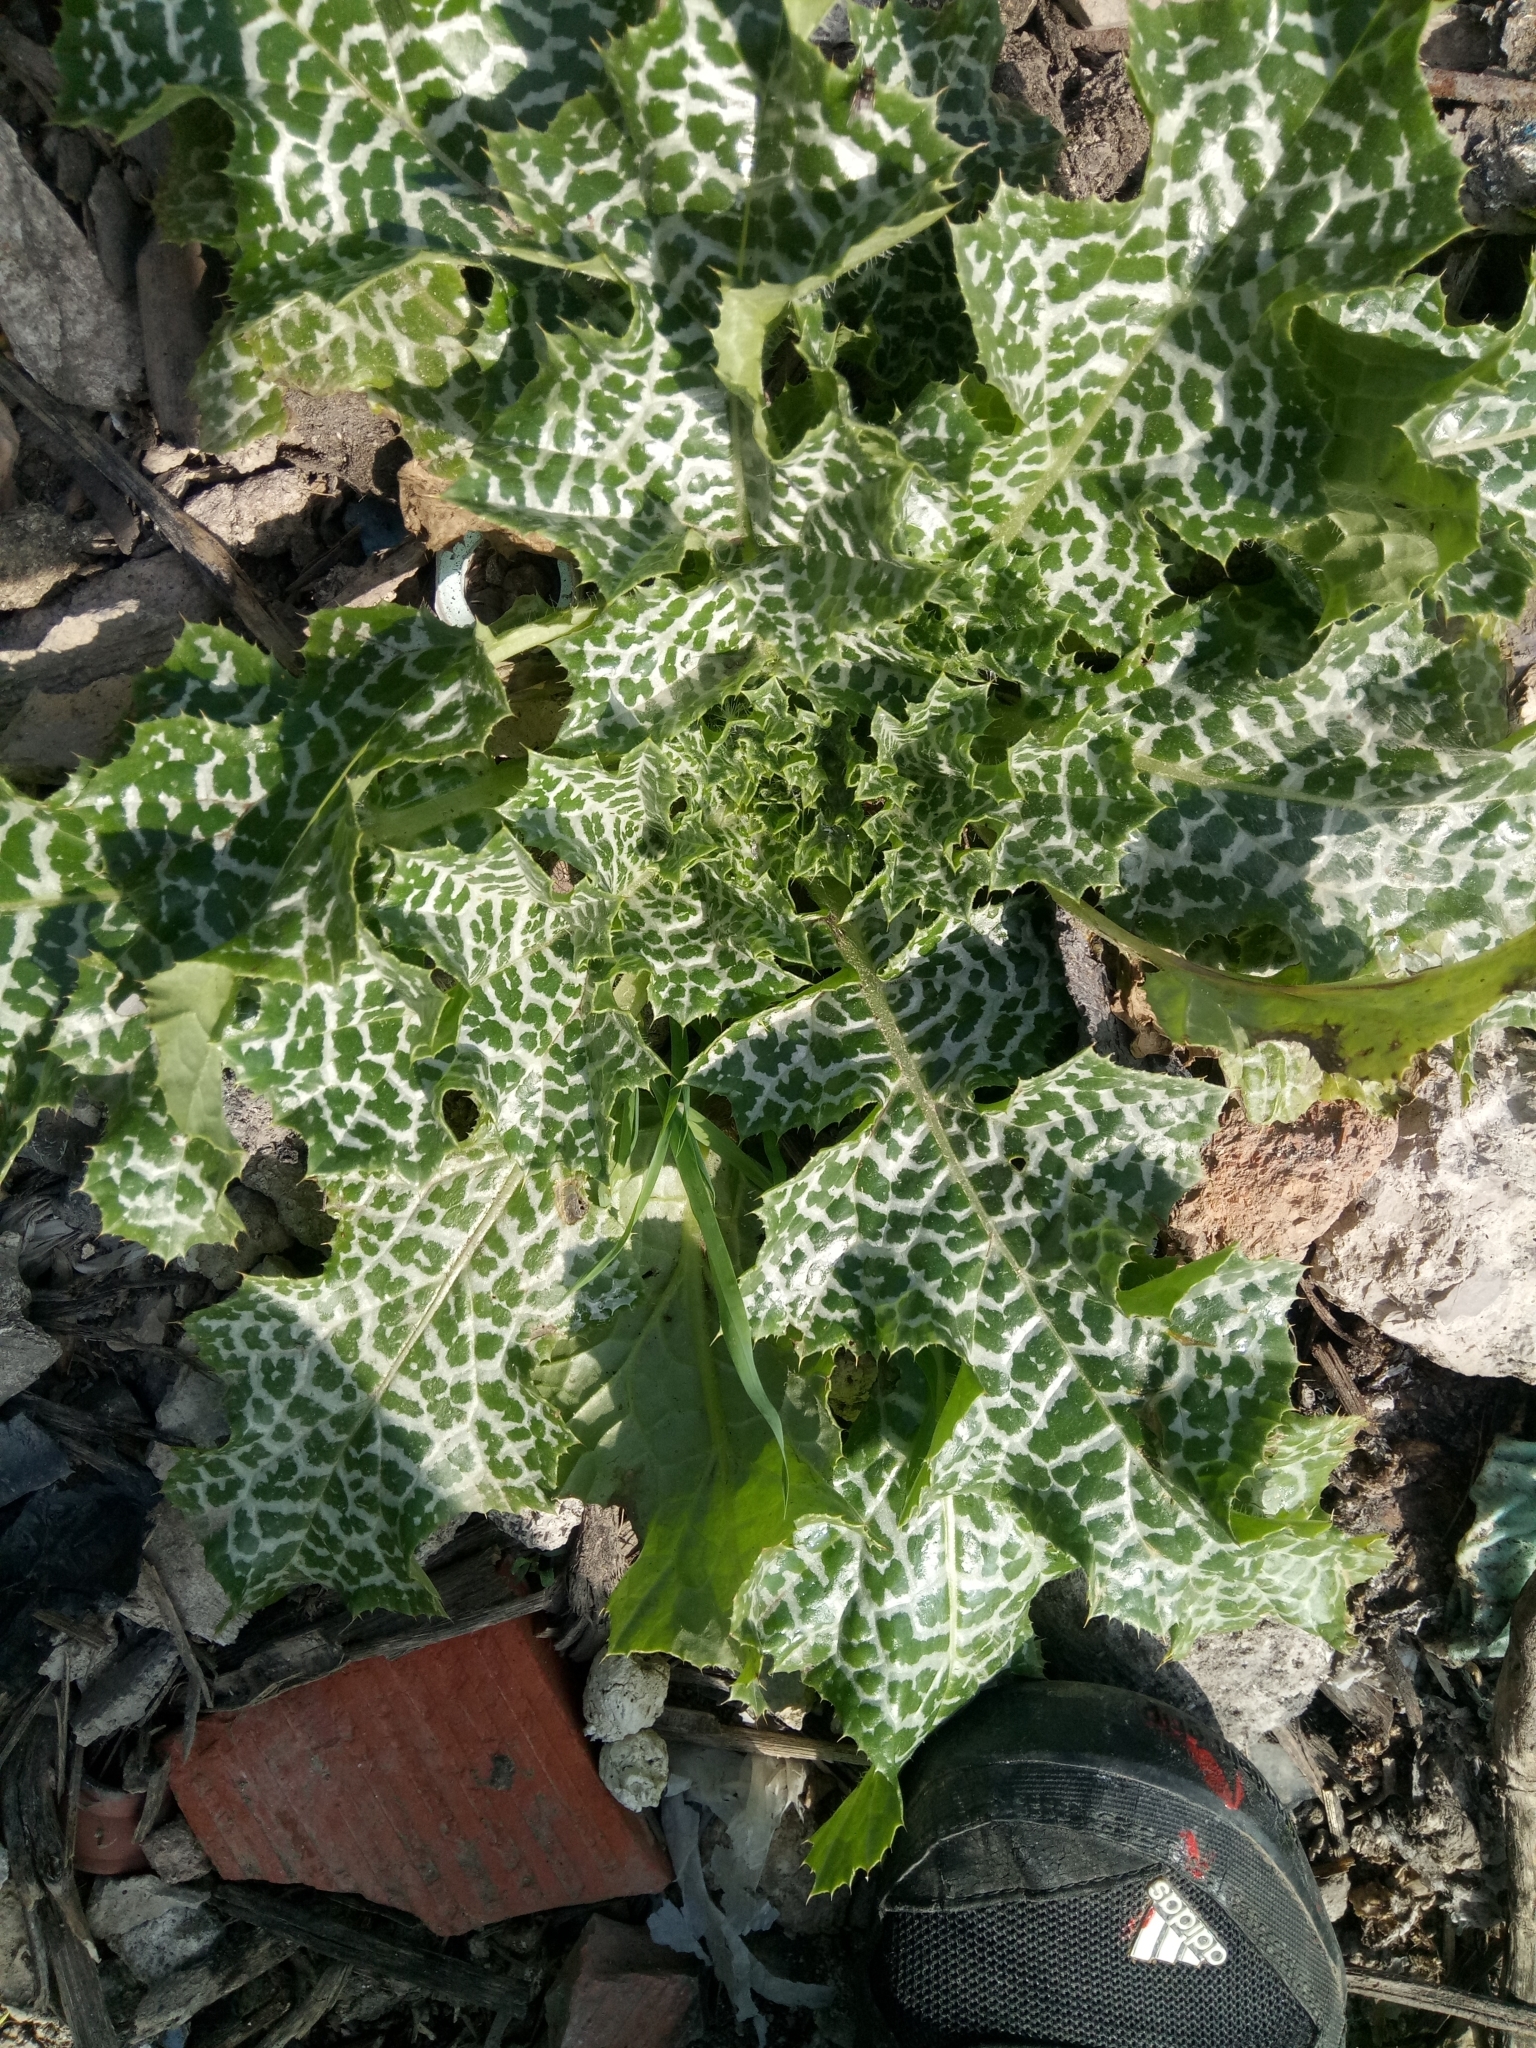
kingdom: Plantae
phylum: Tracheophyta
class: Magnoliopsida
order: Asterales
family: Asteraceae
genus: Silybum
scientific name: Silybum marianum
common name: Milk thistle
